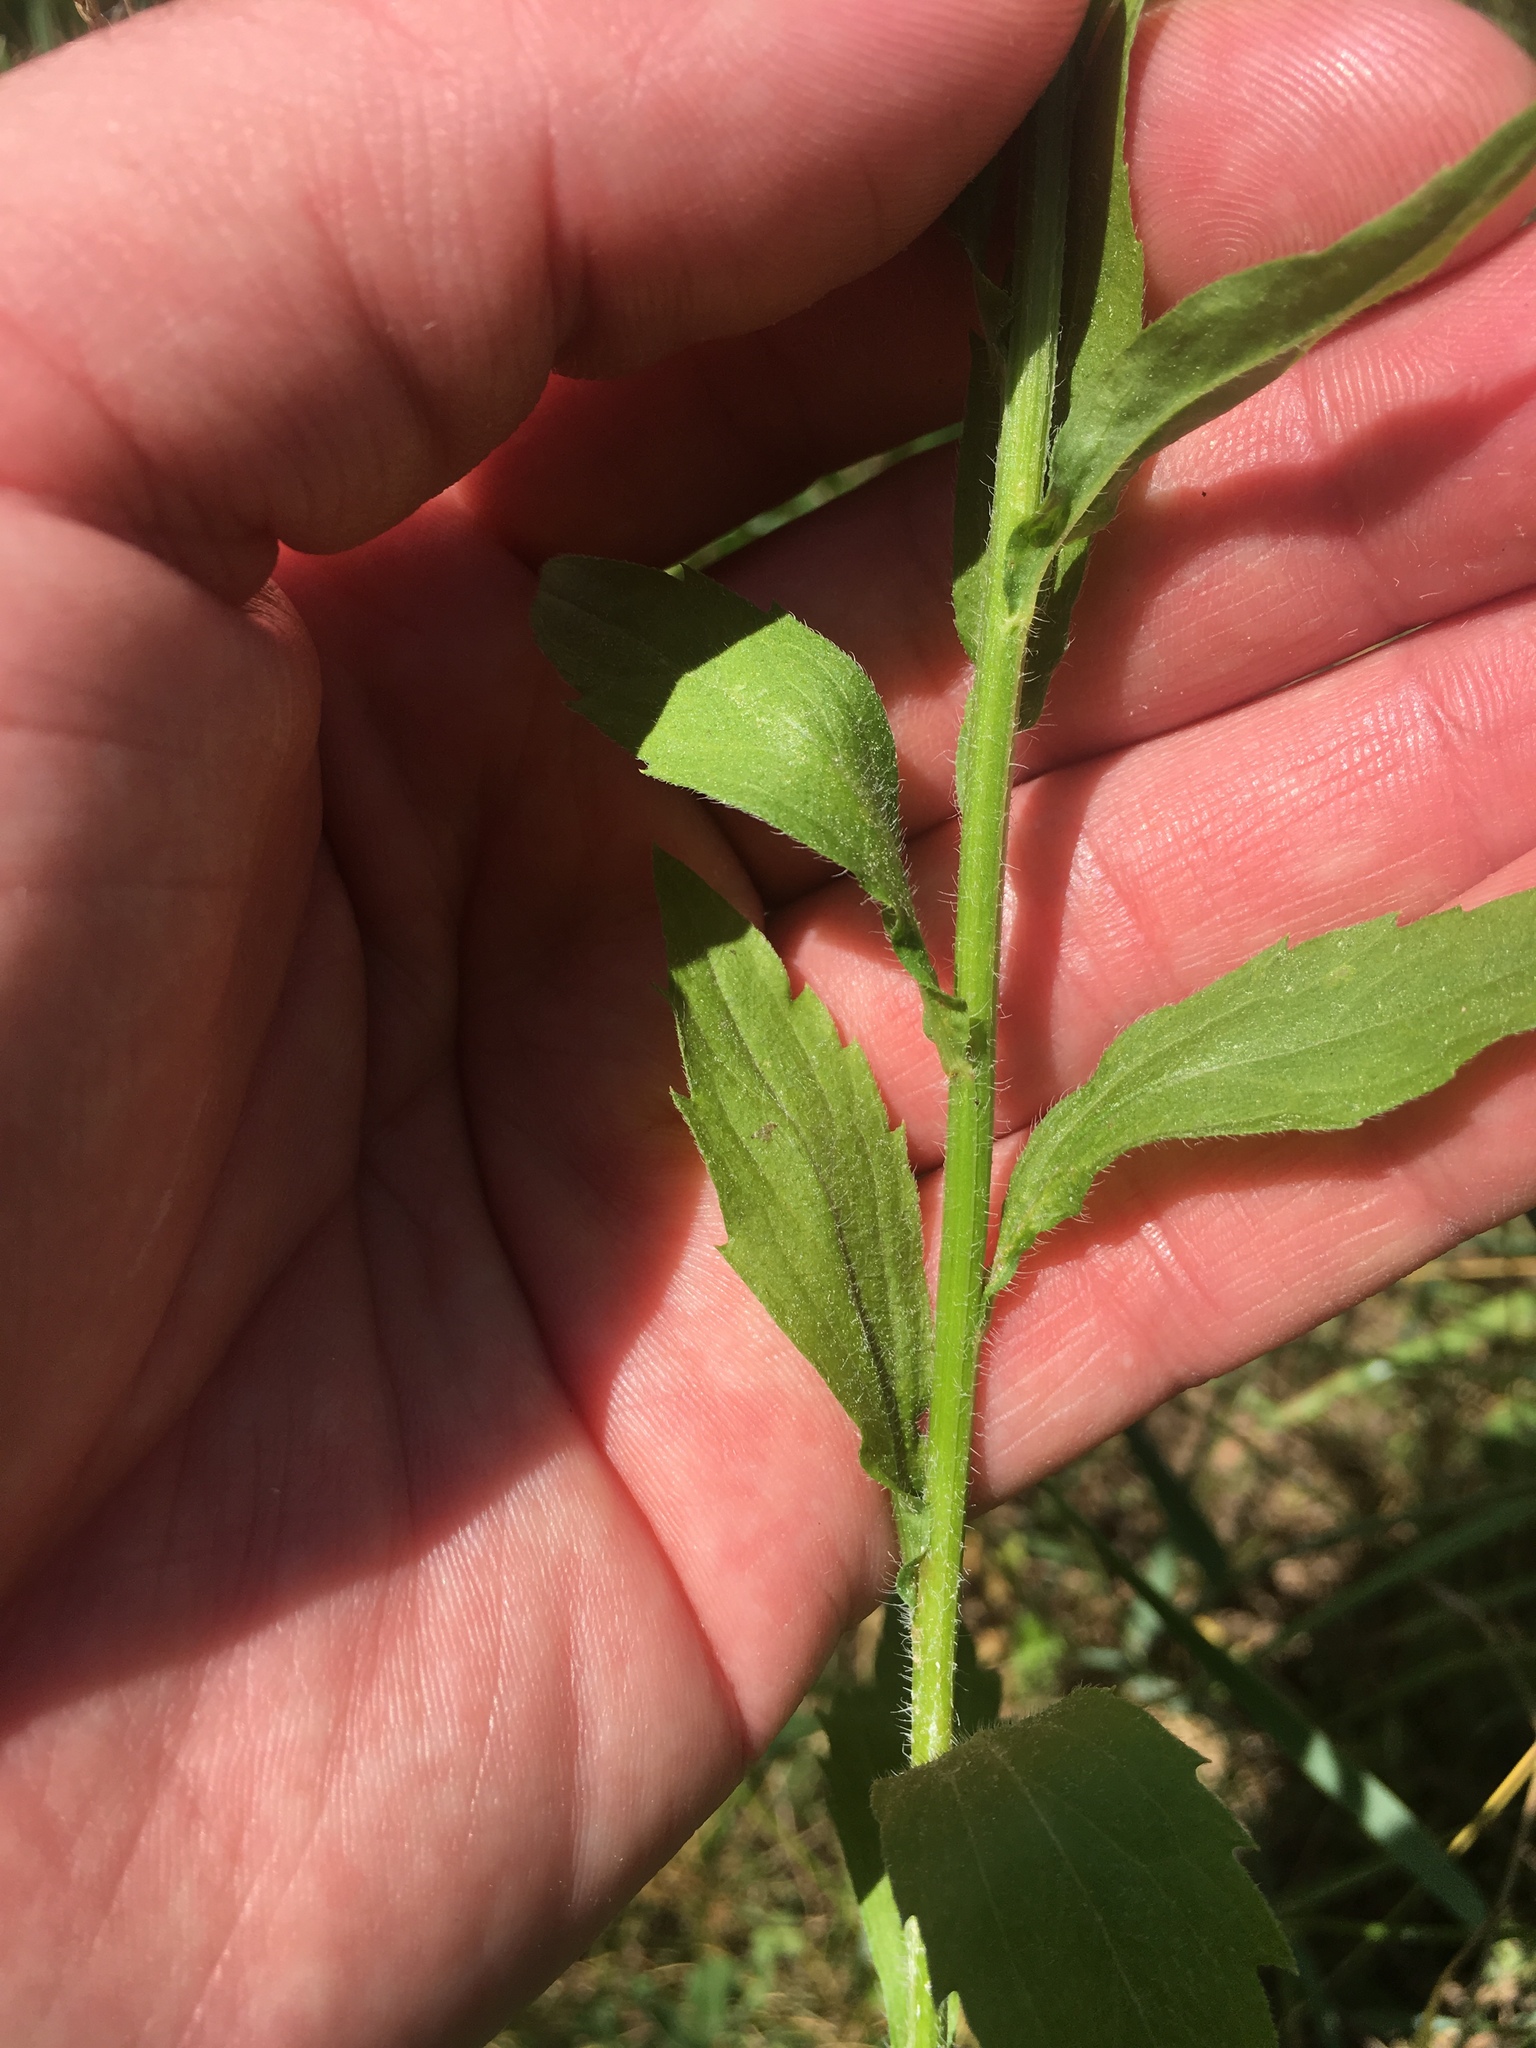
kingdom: Plantae
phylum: Tracheophyta
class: Magnoliopsida
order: Asterales
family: Asteraceae
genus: Erigeron
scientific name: Erigeron annuus
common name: Tall fleabane
